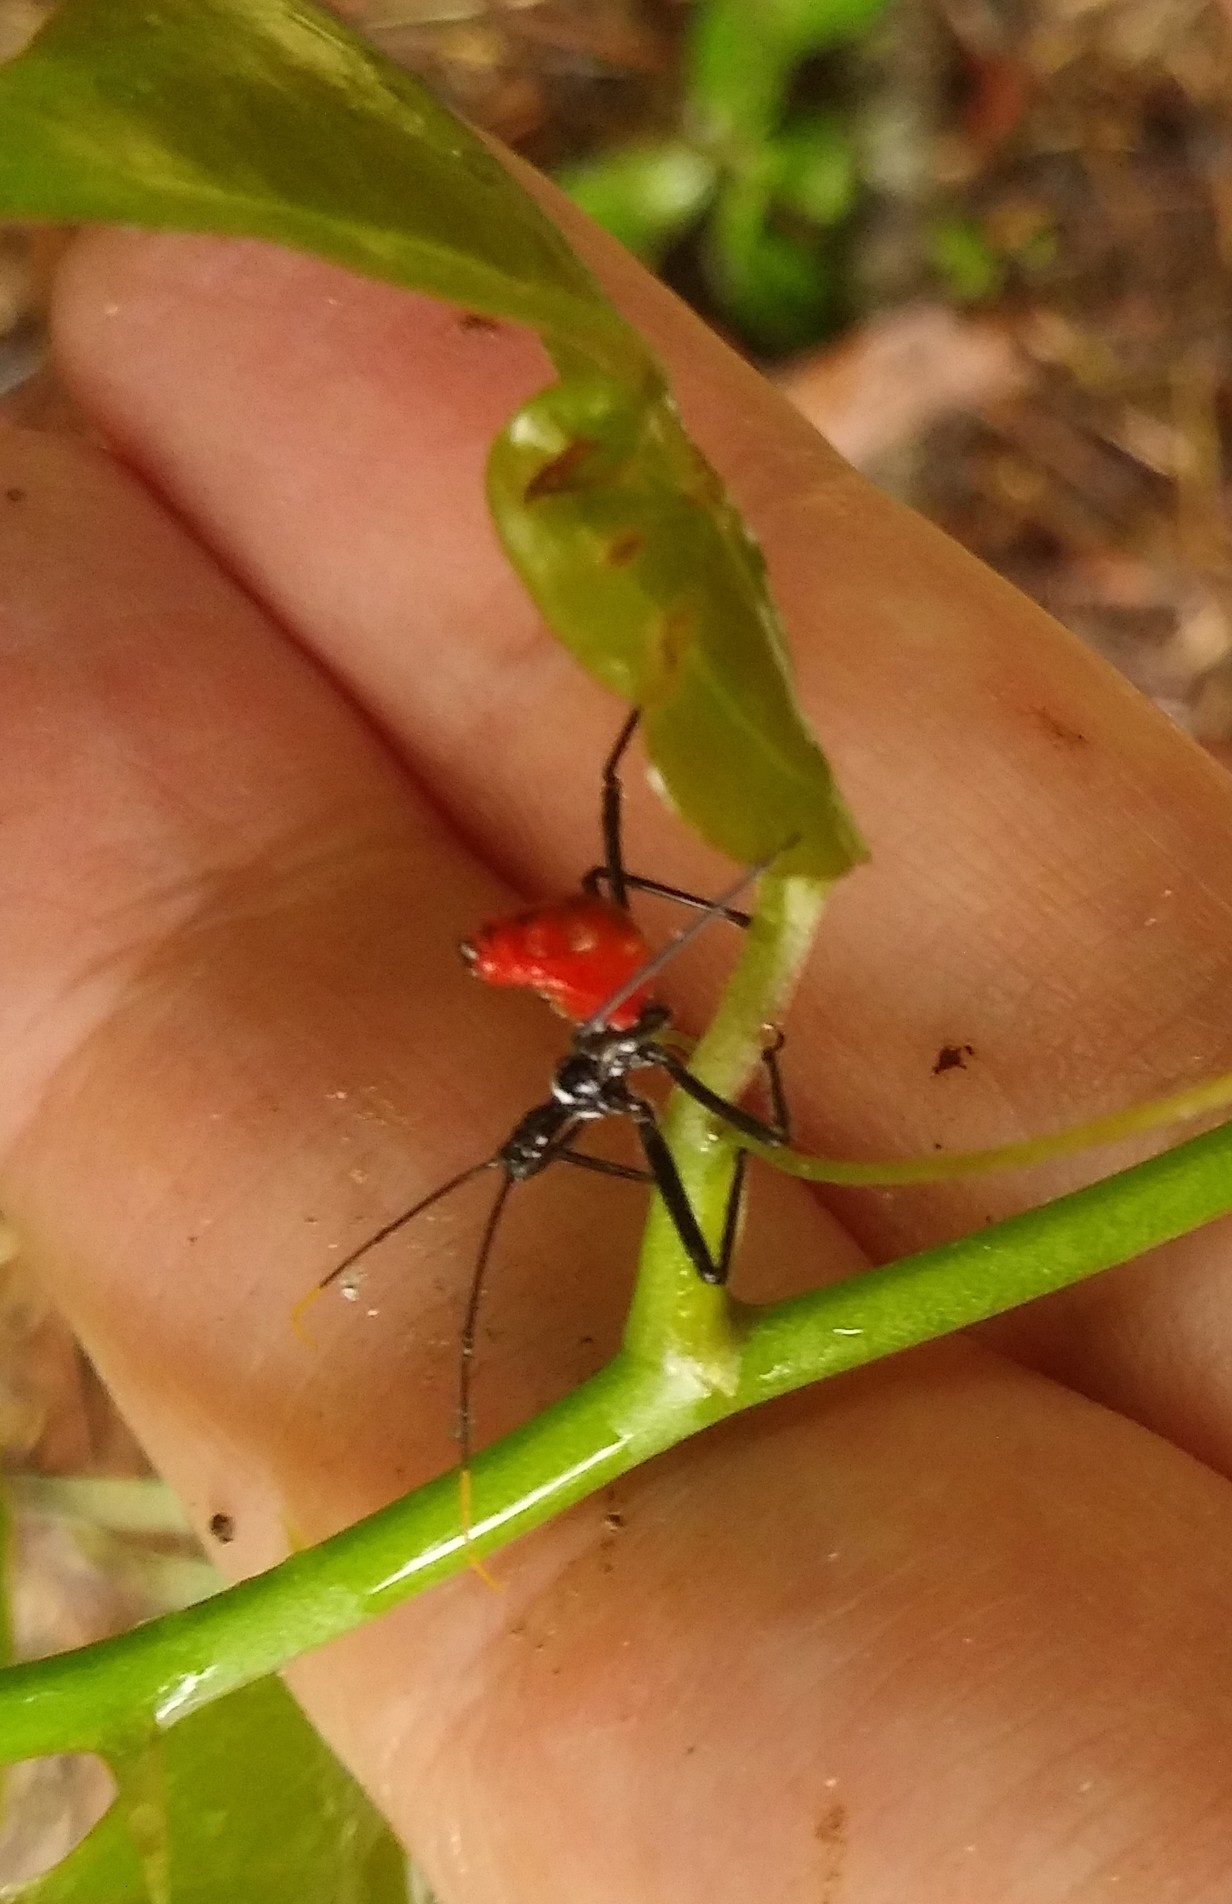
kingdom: Animalia
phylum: Arthropoda
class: Insecta
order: Hemiptera
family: Reduviidae
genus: Arilus
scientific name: Arilus cristatus
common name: North american wheel bug
